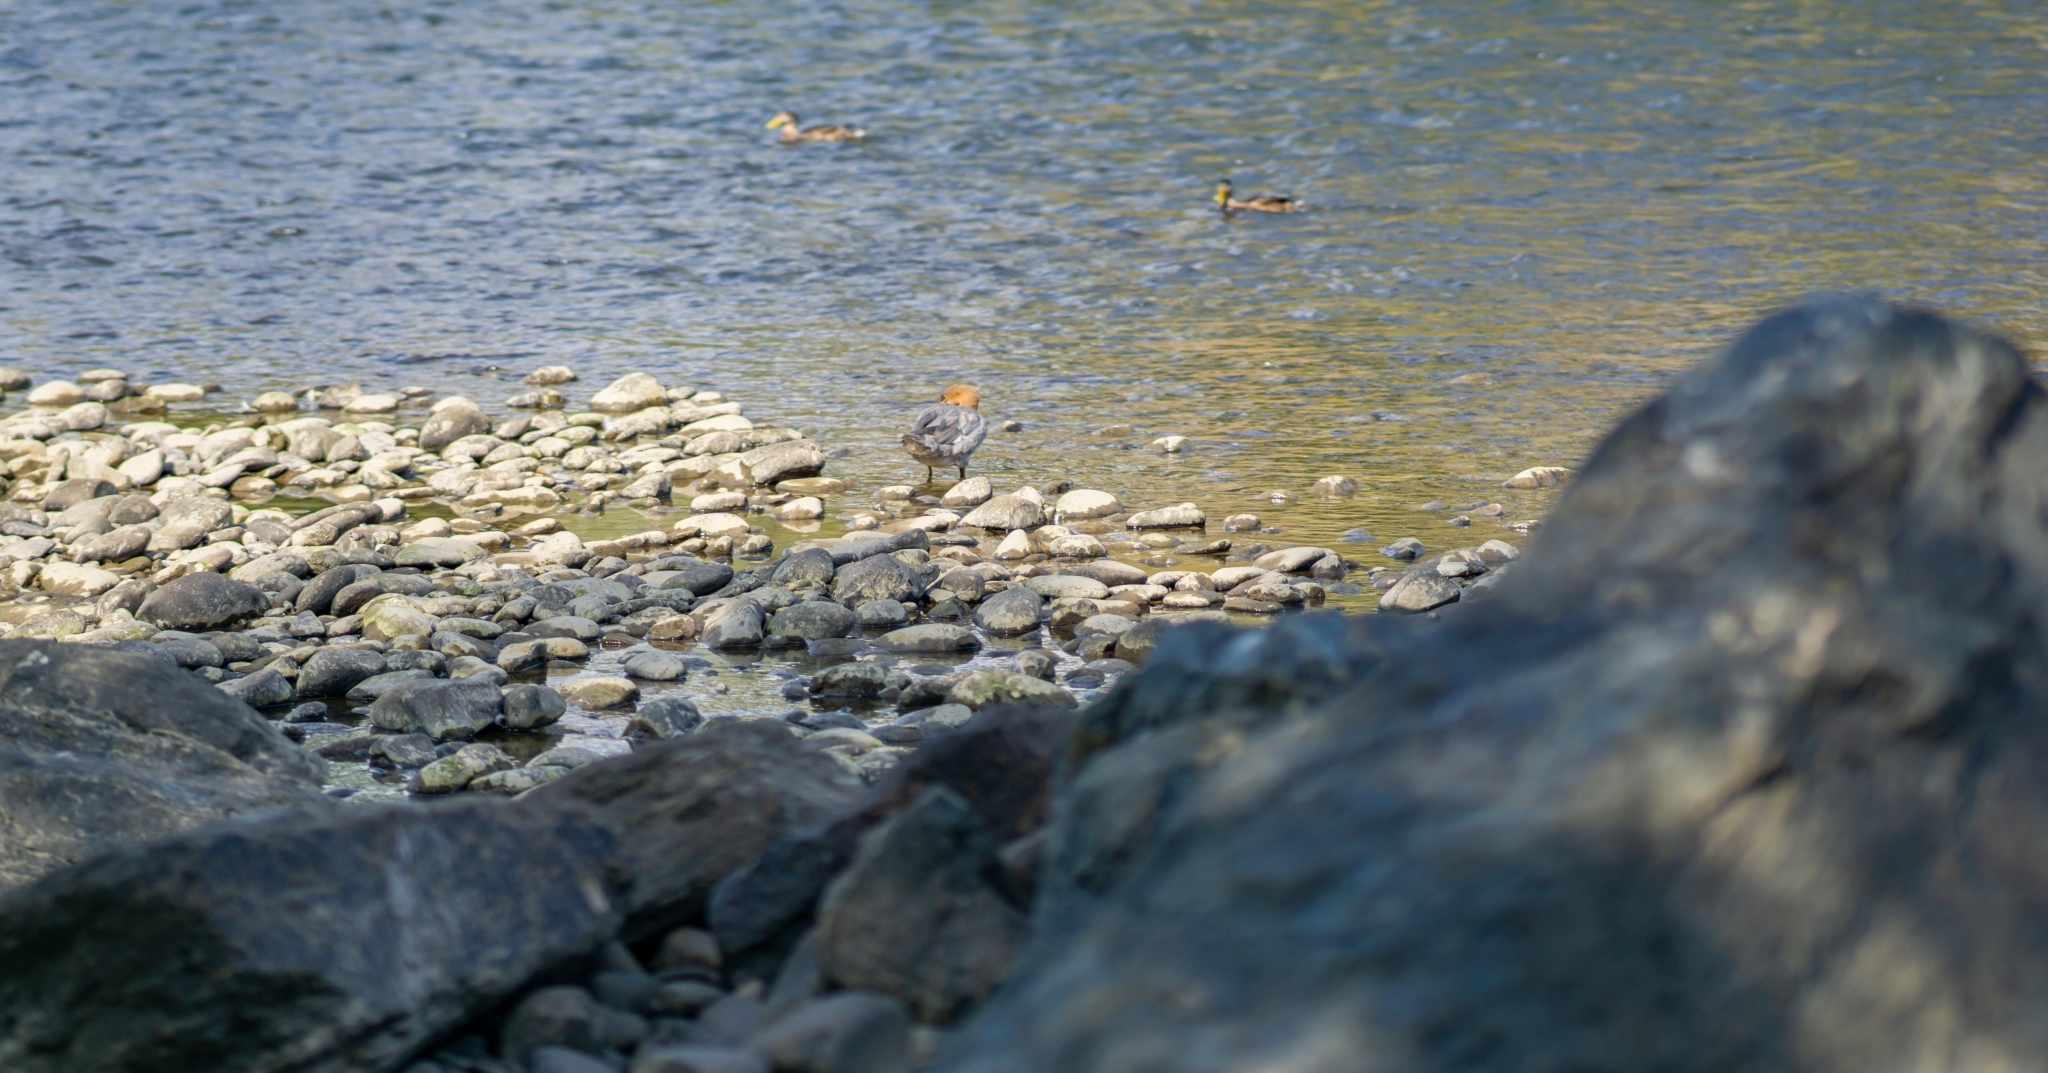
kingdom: Animalia
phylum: Chordata
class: Aves
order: Anseriformes
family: Anatidae
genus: Mergus
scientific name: Mergus merganser
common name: Common merganser
